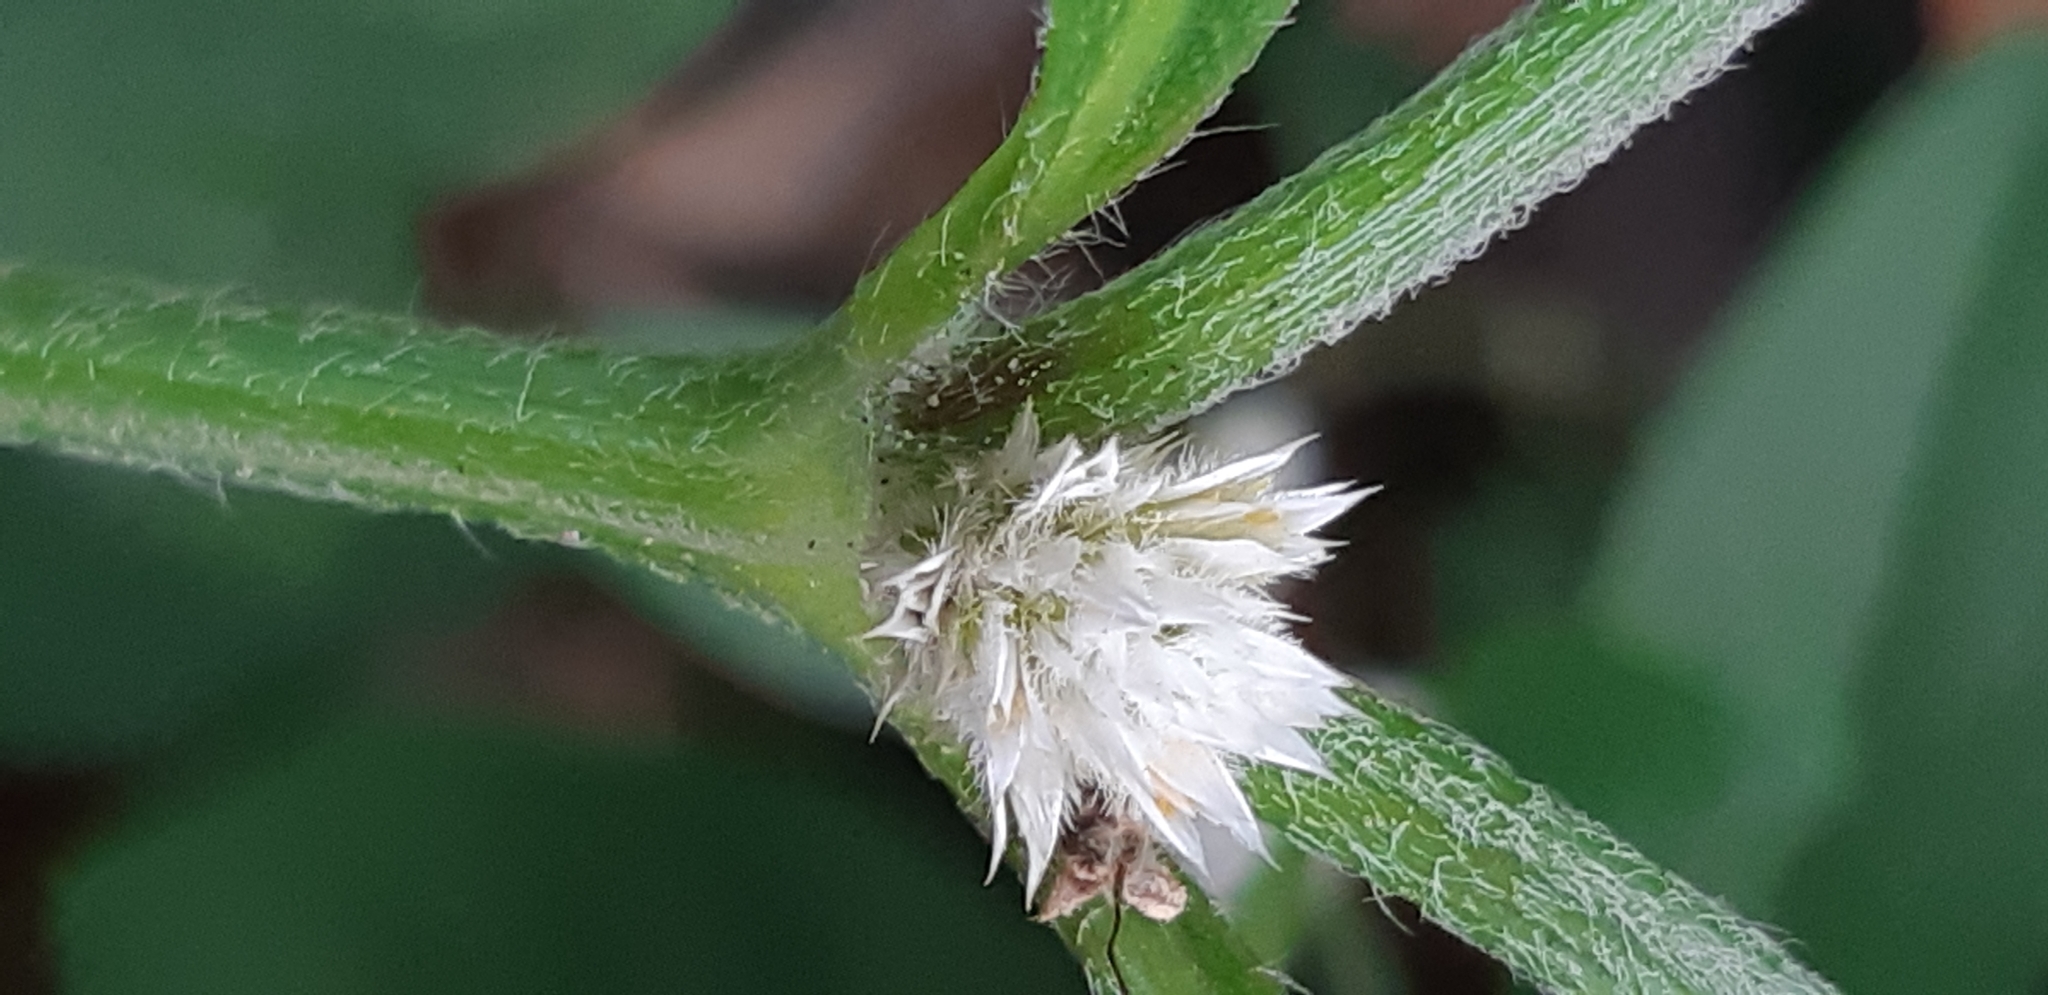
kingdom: Plantae
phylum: Tracheophyta
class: Magnoliopsida
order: Caryophyllales
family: Amaranthaceae
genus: Alternanthera
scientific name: Alternanthera bettzickiana
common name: Calico-plant
